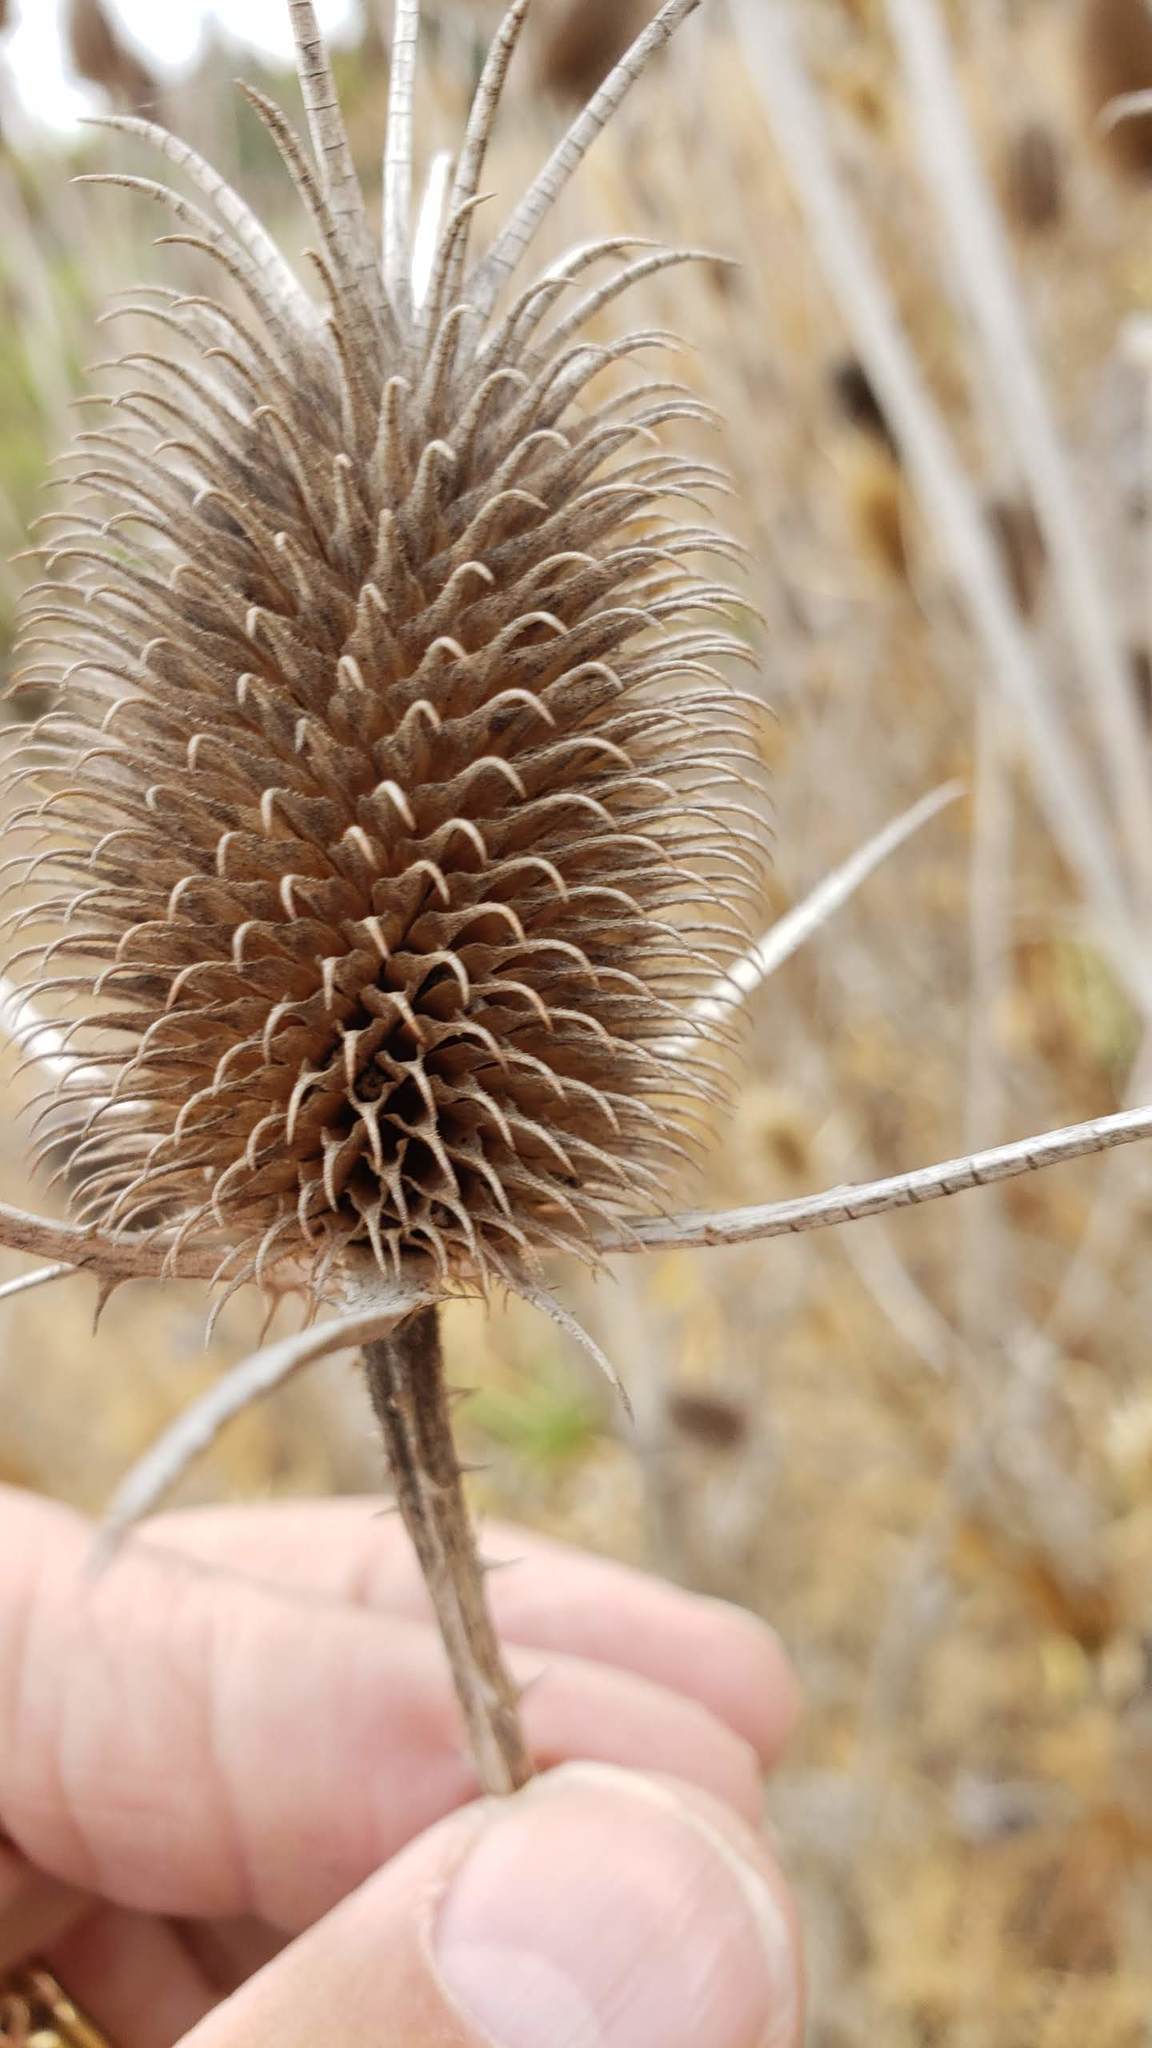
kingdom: Plantae
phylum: Tracheophyta
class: Magnoliopsida
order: Dipsacales
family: Caprifoliaceae
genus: Dipsacus
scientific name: Dipsacus sativus
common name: Fuller's teasel
